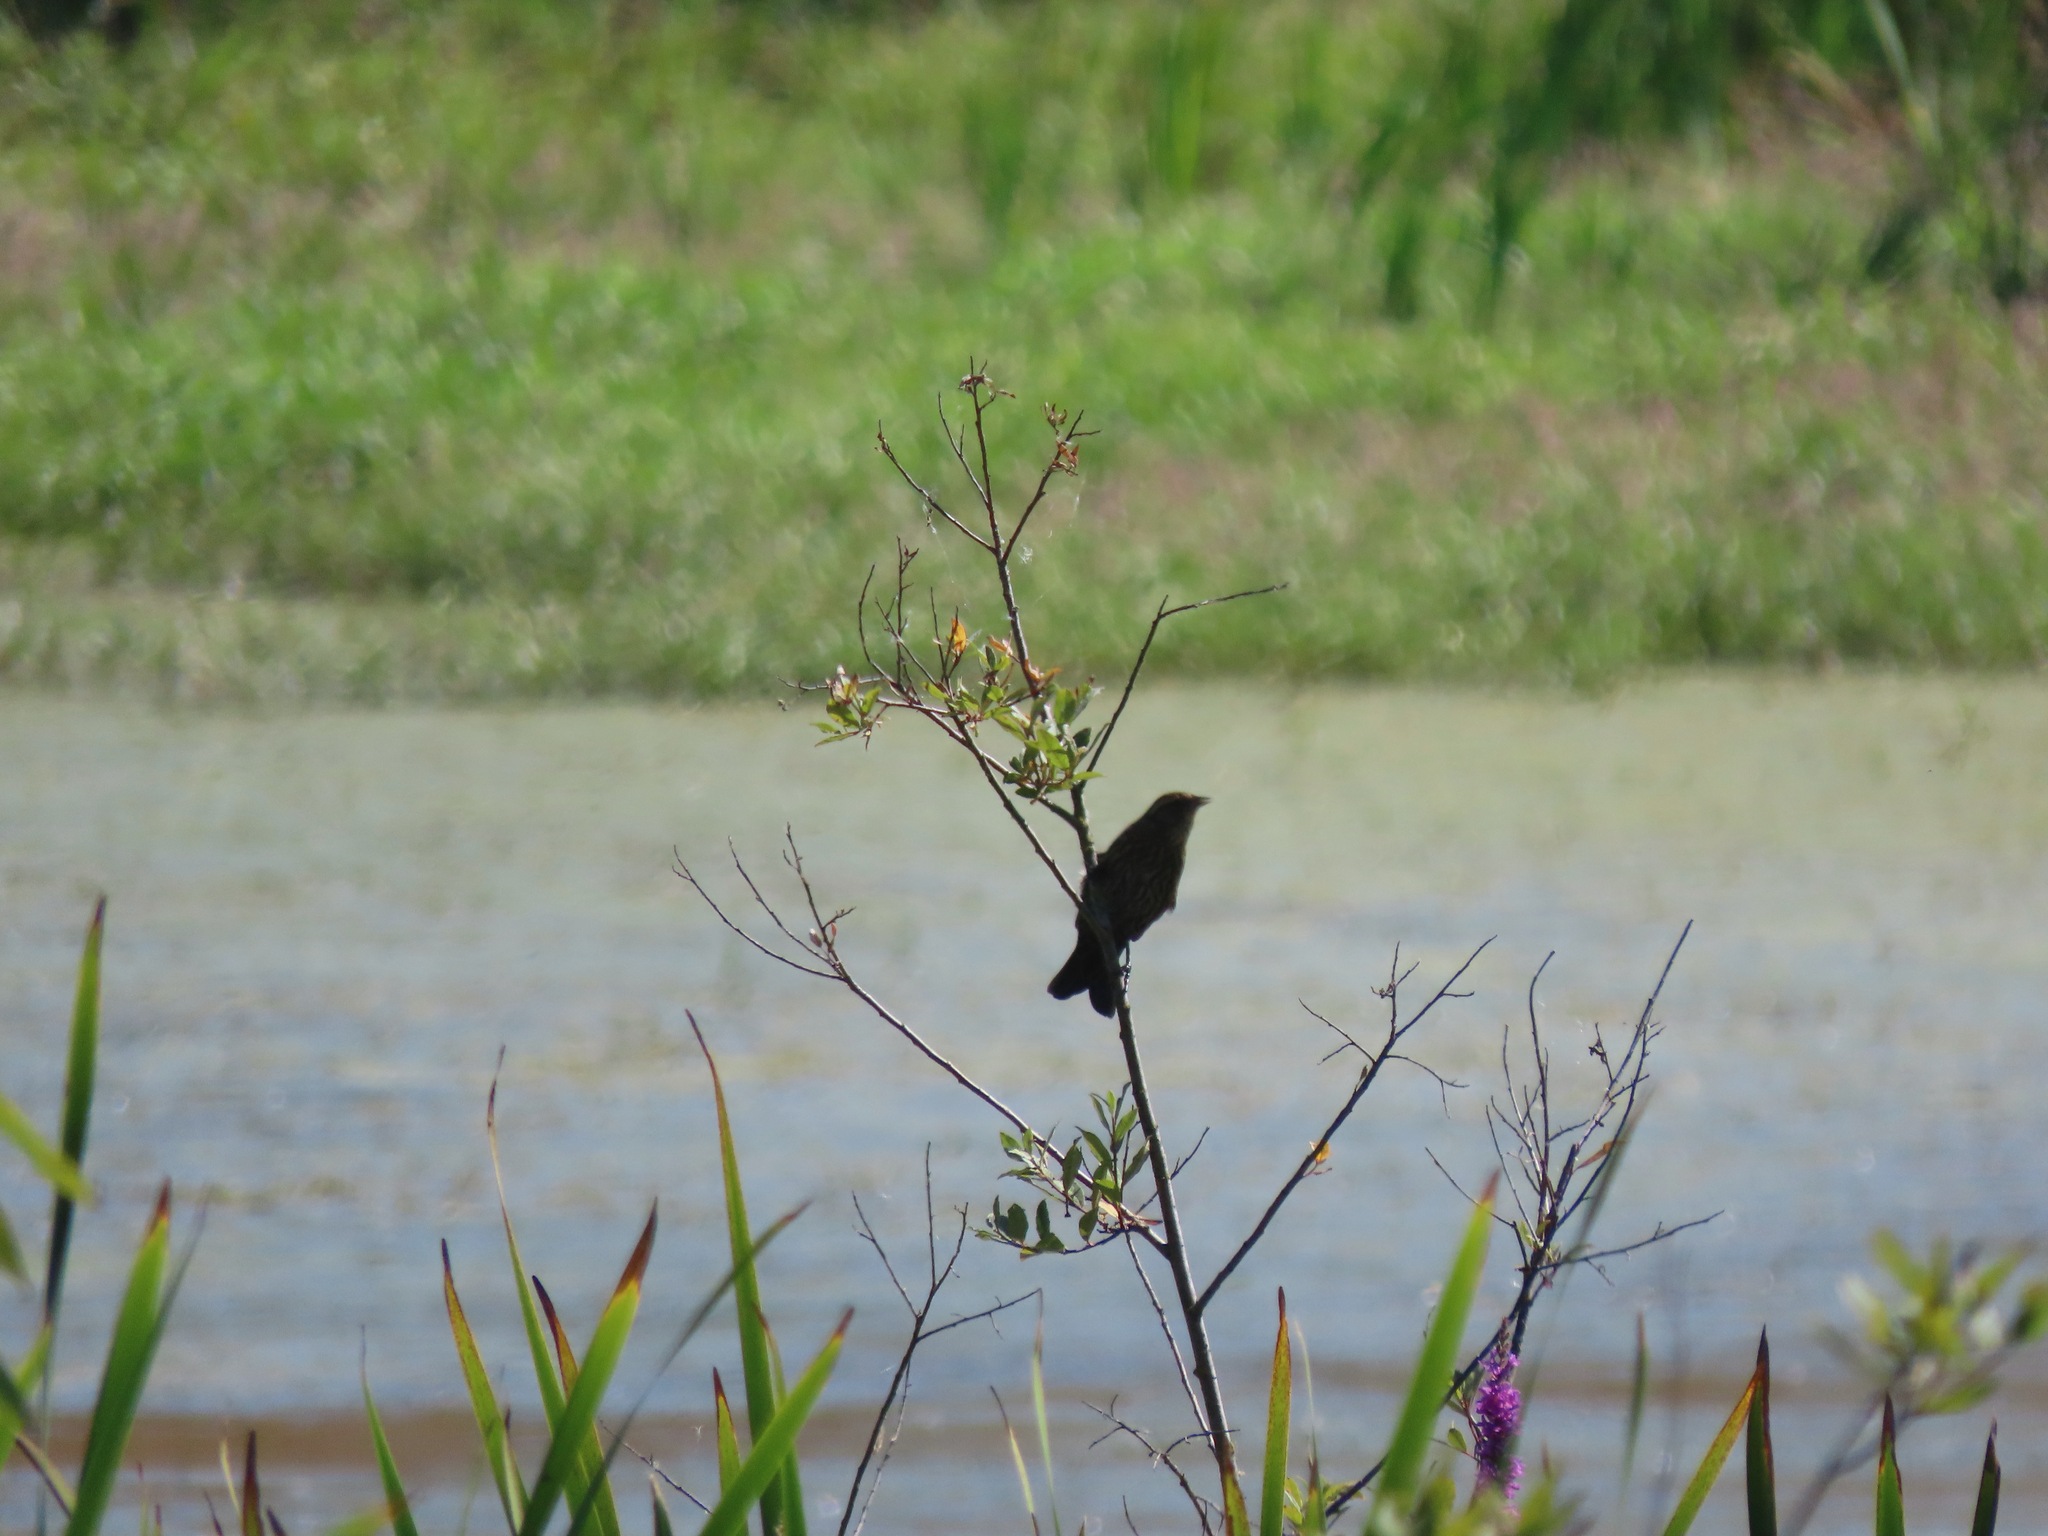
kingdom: Animalia
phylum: Chordata
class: Aves
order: Passeriformes
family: Icteridae
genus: Agelaius
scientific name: Agelaius phoeniceus
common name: Red-winged blackbird
